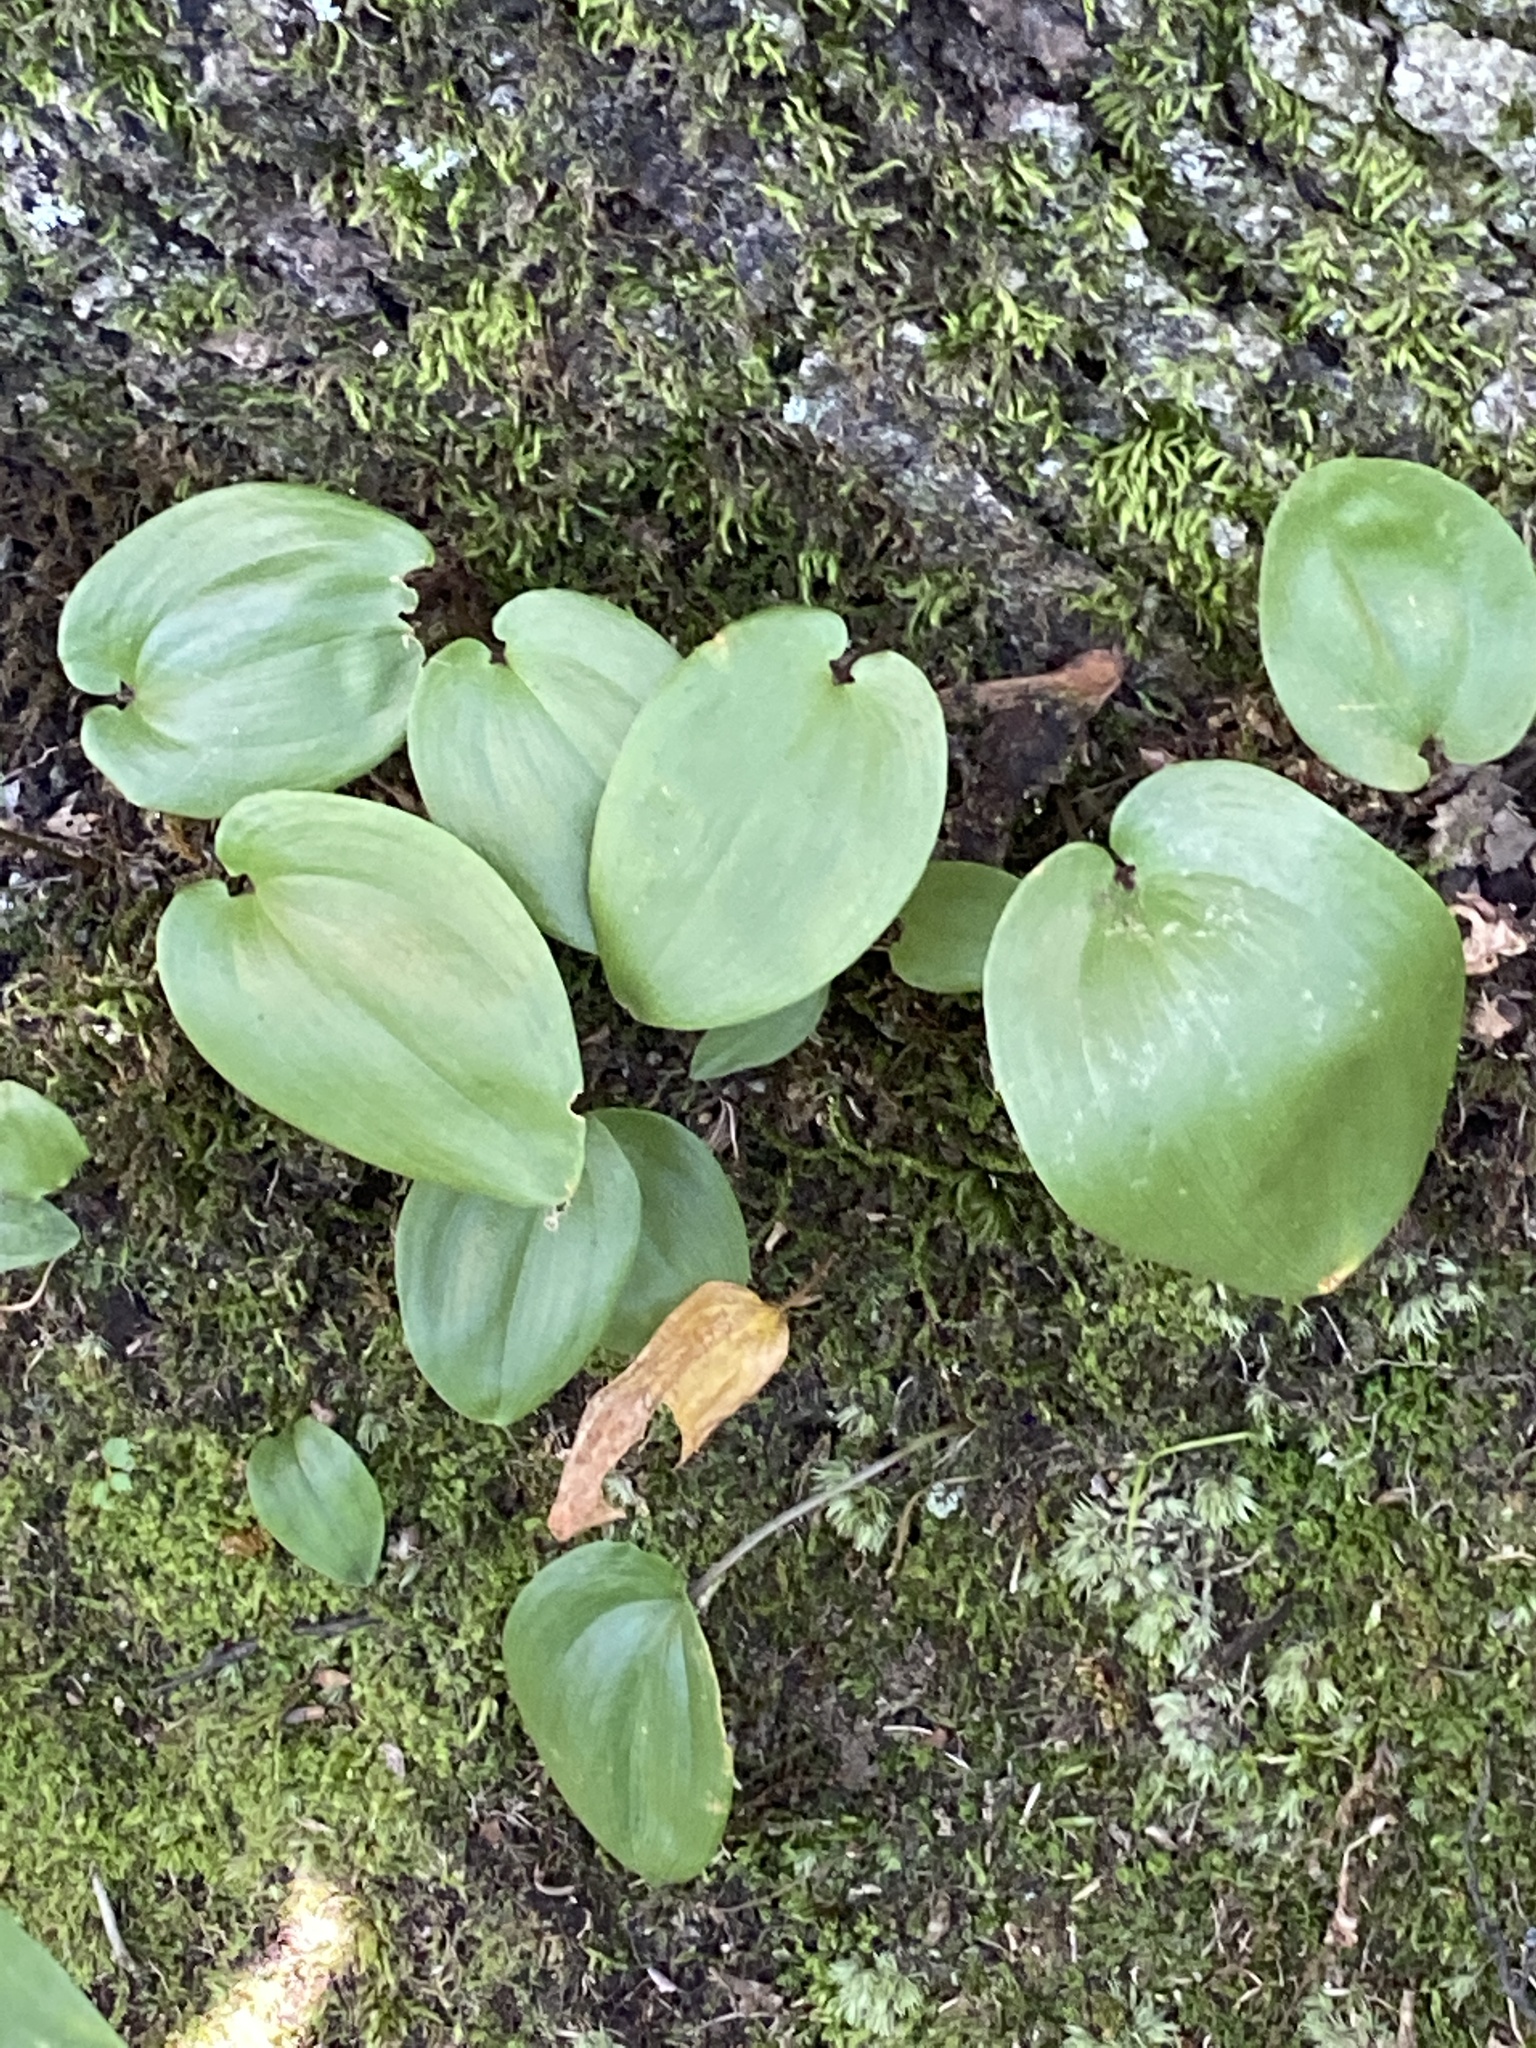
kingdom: Plantae
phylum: Tracheophyta
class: Liliopsida
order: Asparagales
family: Asparagaceae
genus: Maianthemum
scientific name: Maianthemum canadense
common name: False lily-of-the-valley
